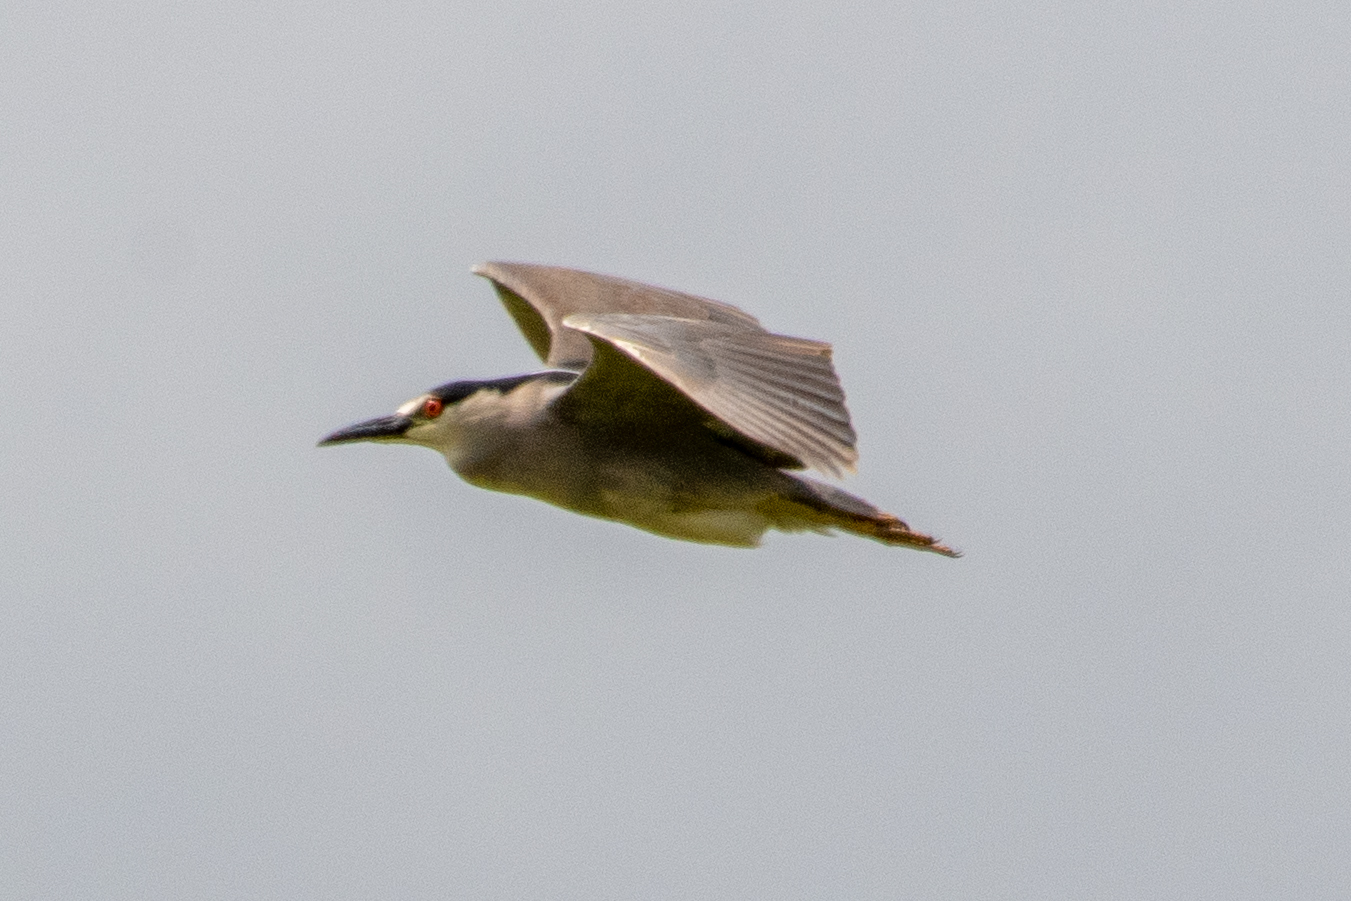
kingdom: Animalia
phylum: Chordata
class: Aves
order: Pelecaniformes
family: Ardeidae
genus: Nycticorax
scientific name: Nycticorax nycticorax
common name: Black-crowned night heron
